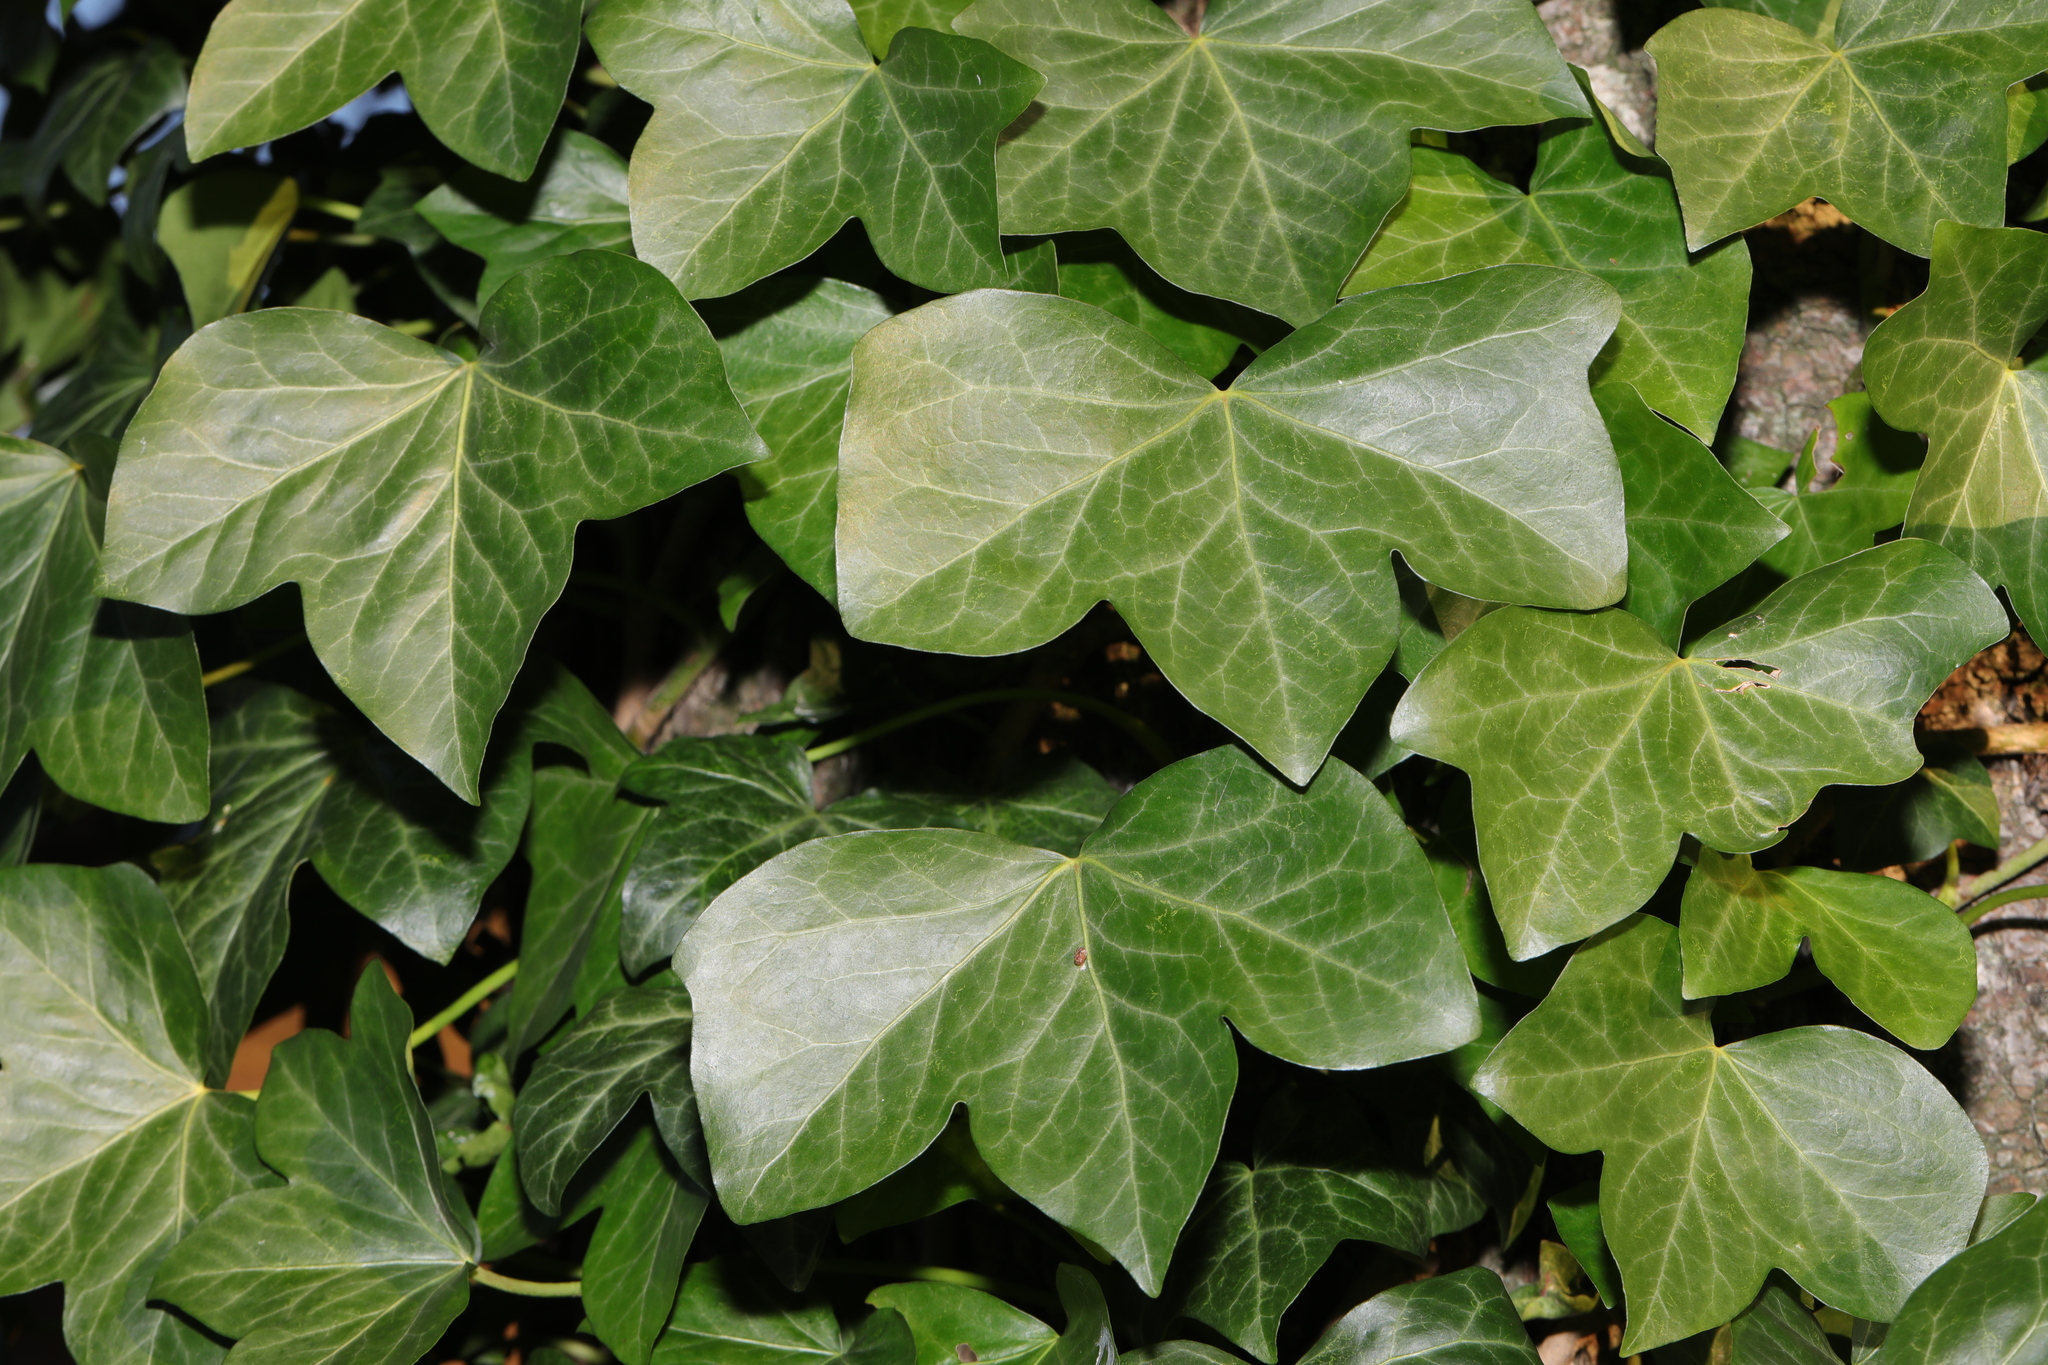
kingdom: Plantae
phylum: Tracheophyta
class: Magnoliopsida
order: Apiales
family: Araliaceae
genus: Hedera
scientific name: Hedera helix
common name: Ivy
